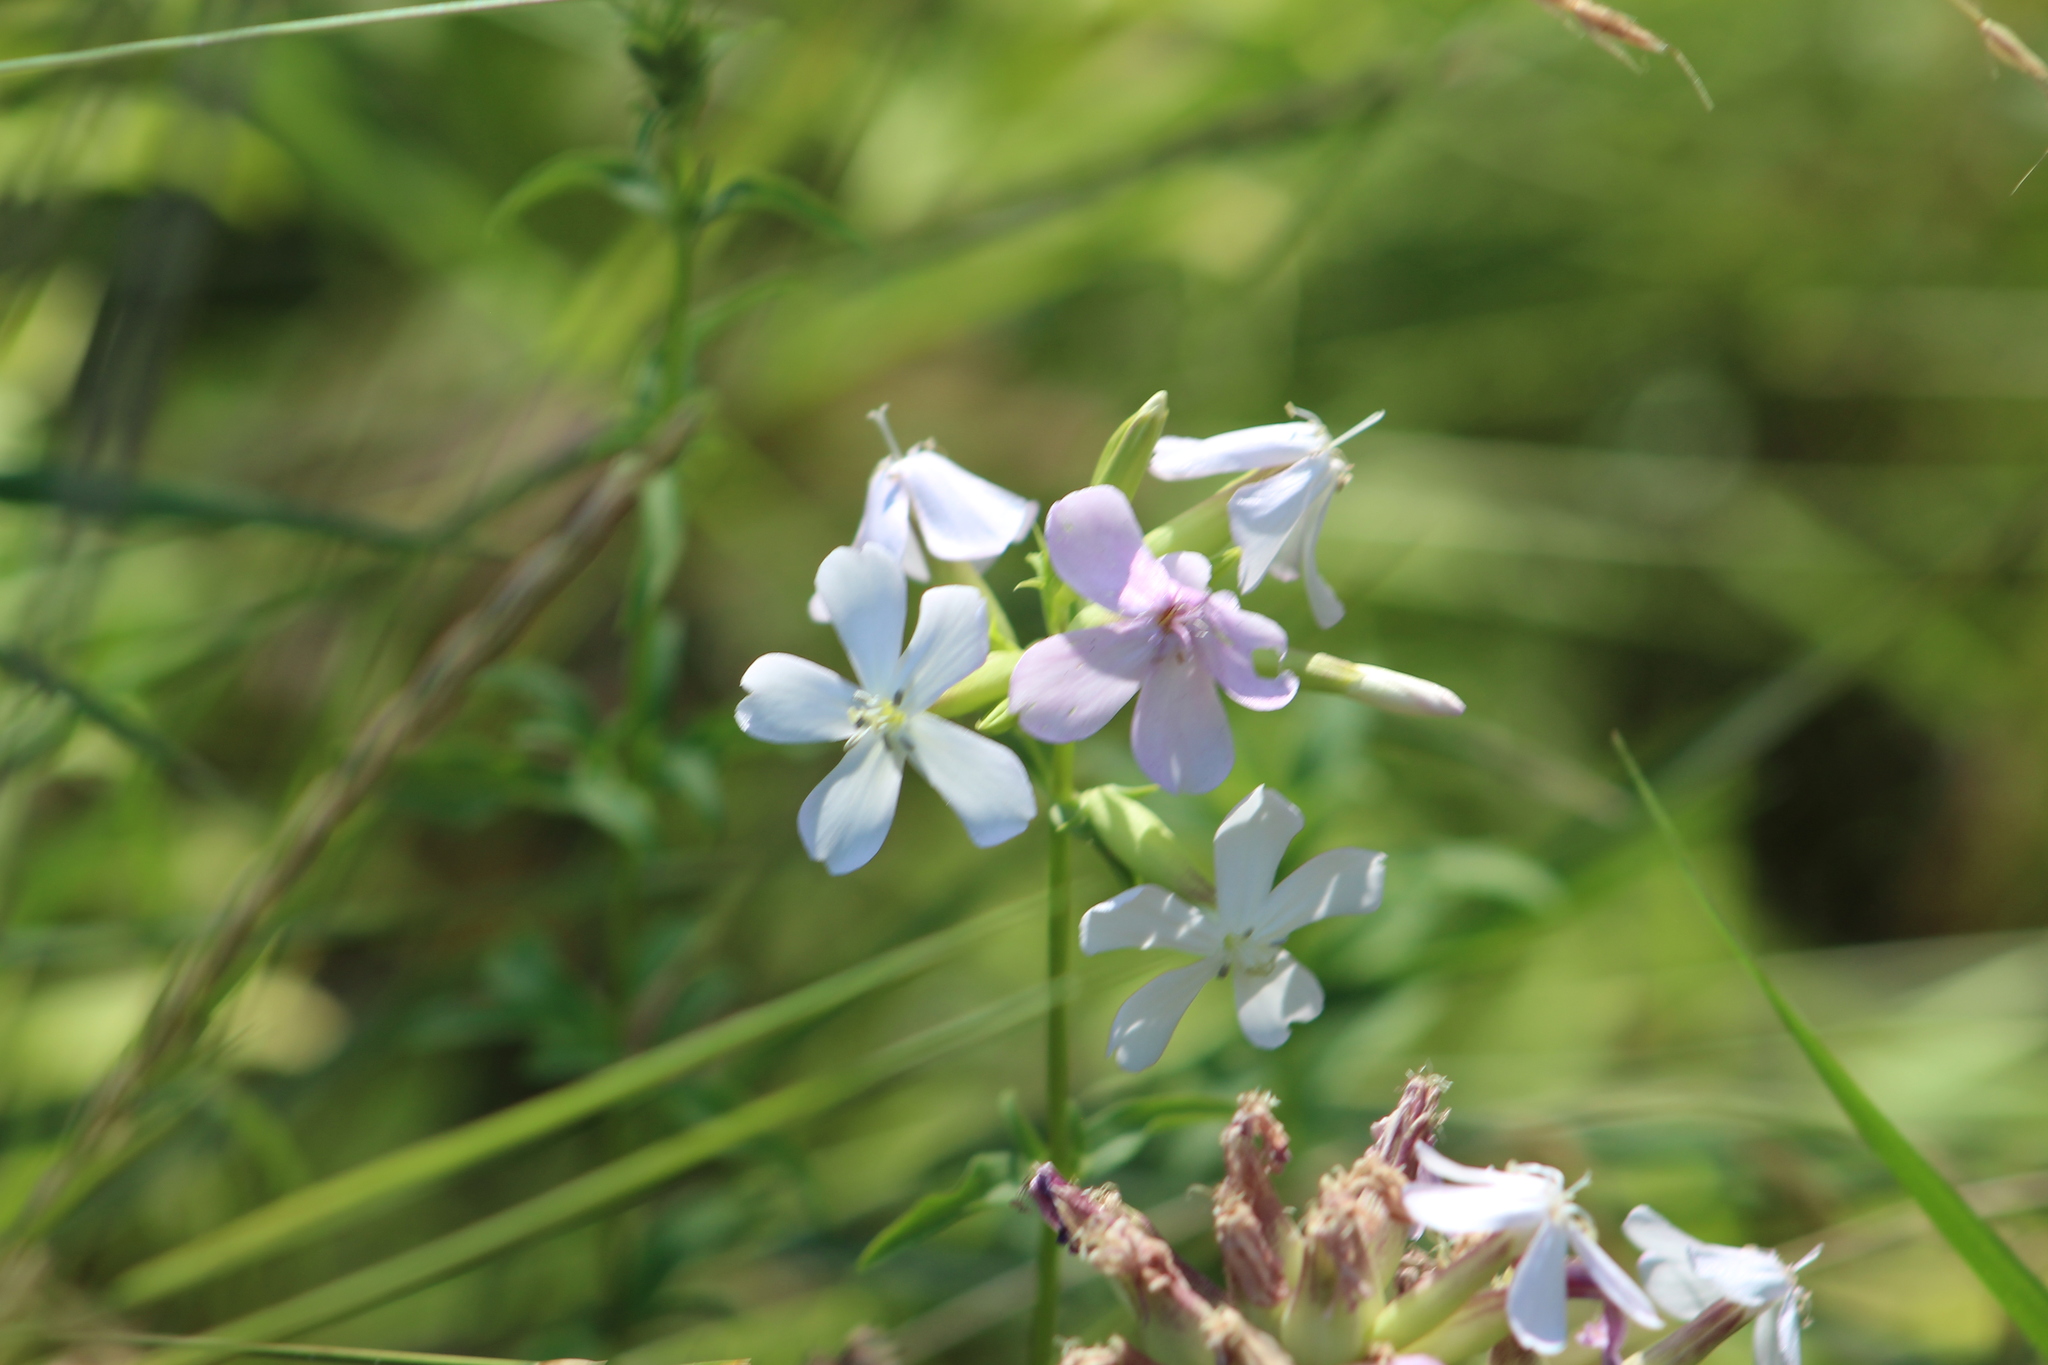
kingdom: Plantae
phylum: Tracheophyta
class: Magnoliopsida
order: Caryophyllales
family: Caryophyllaceae
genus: Saponaria
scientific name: Saponaria officinalis
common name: Soapwort
